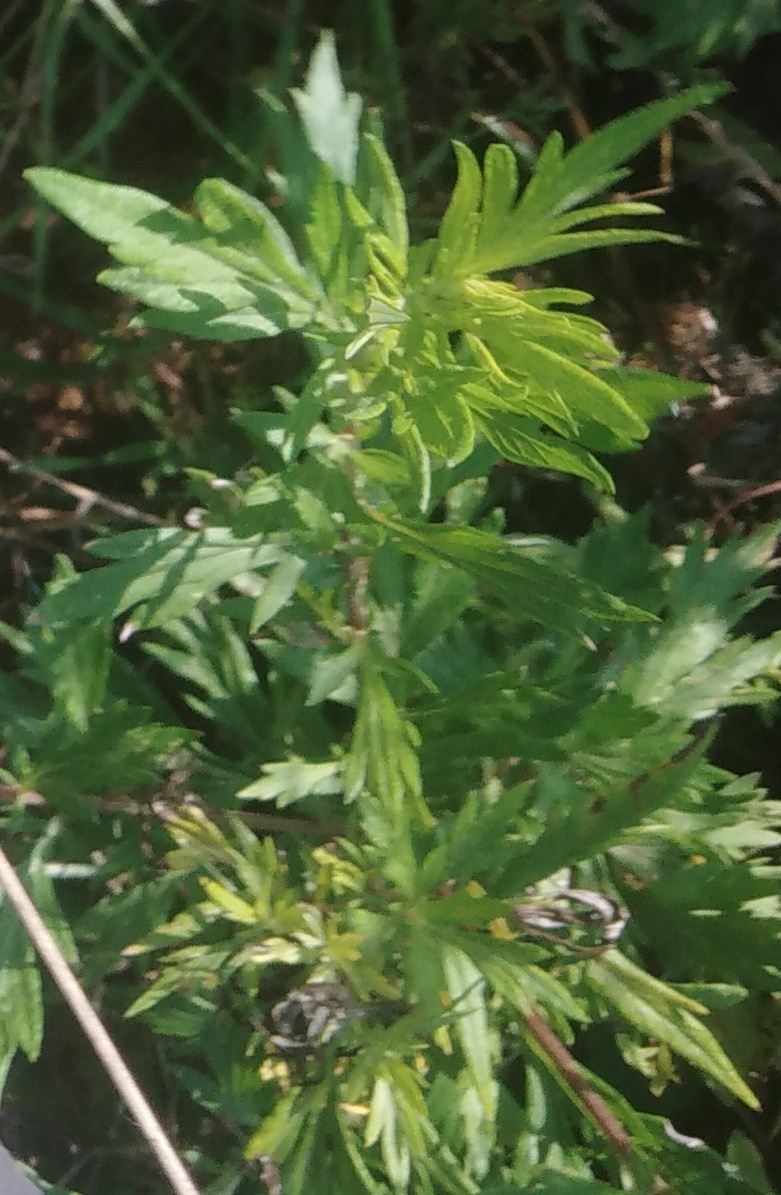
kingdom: Plantae
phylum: Tracheophyta
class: Magnoliopsida
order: Asterales
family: Asteraceae
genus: Artemisia
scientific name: Artemisia vulgaris
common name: Mugwort
